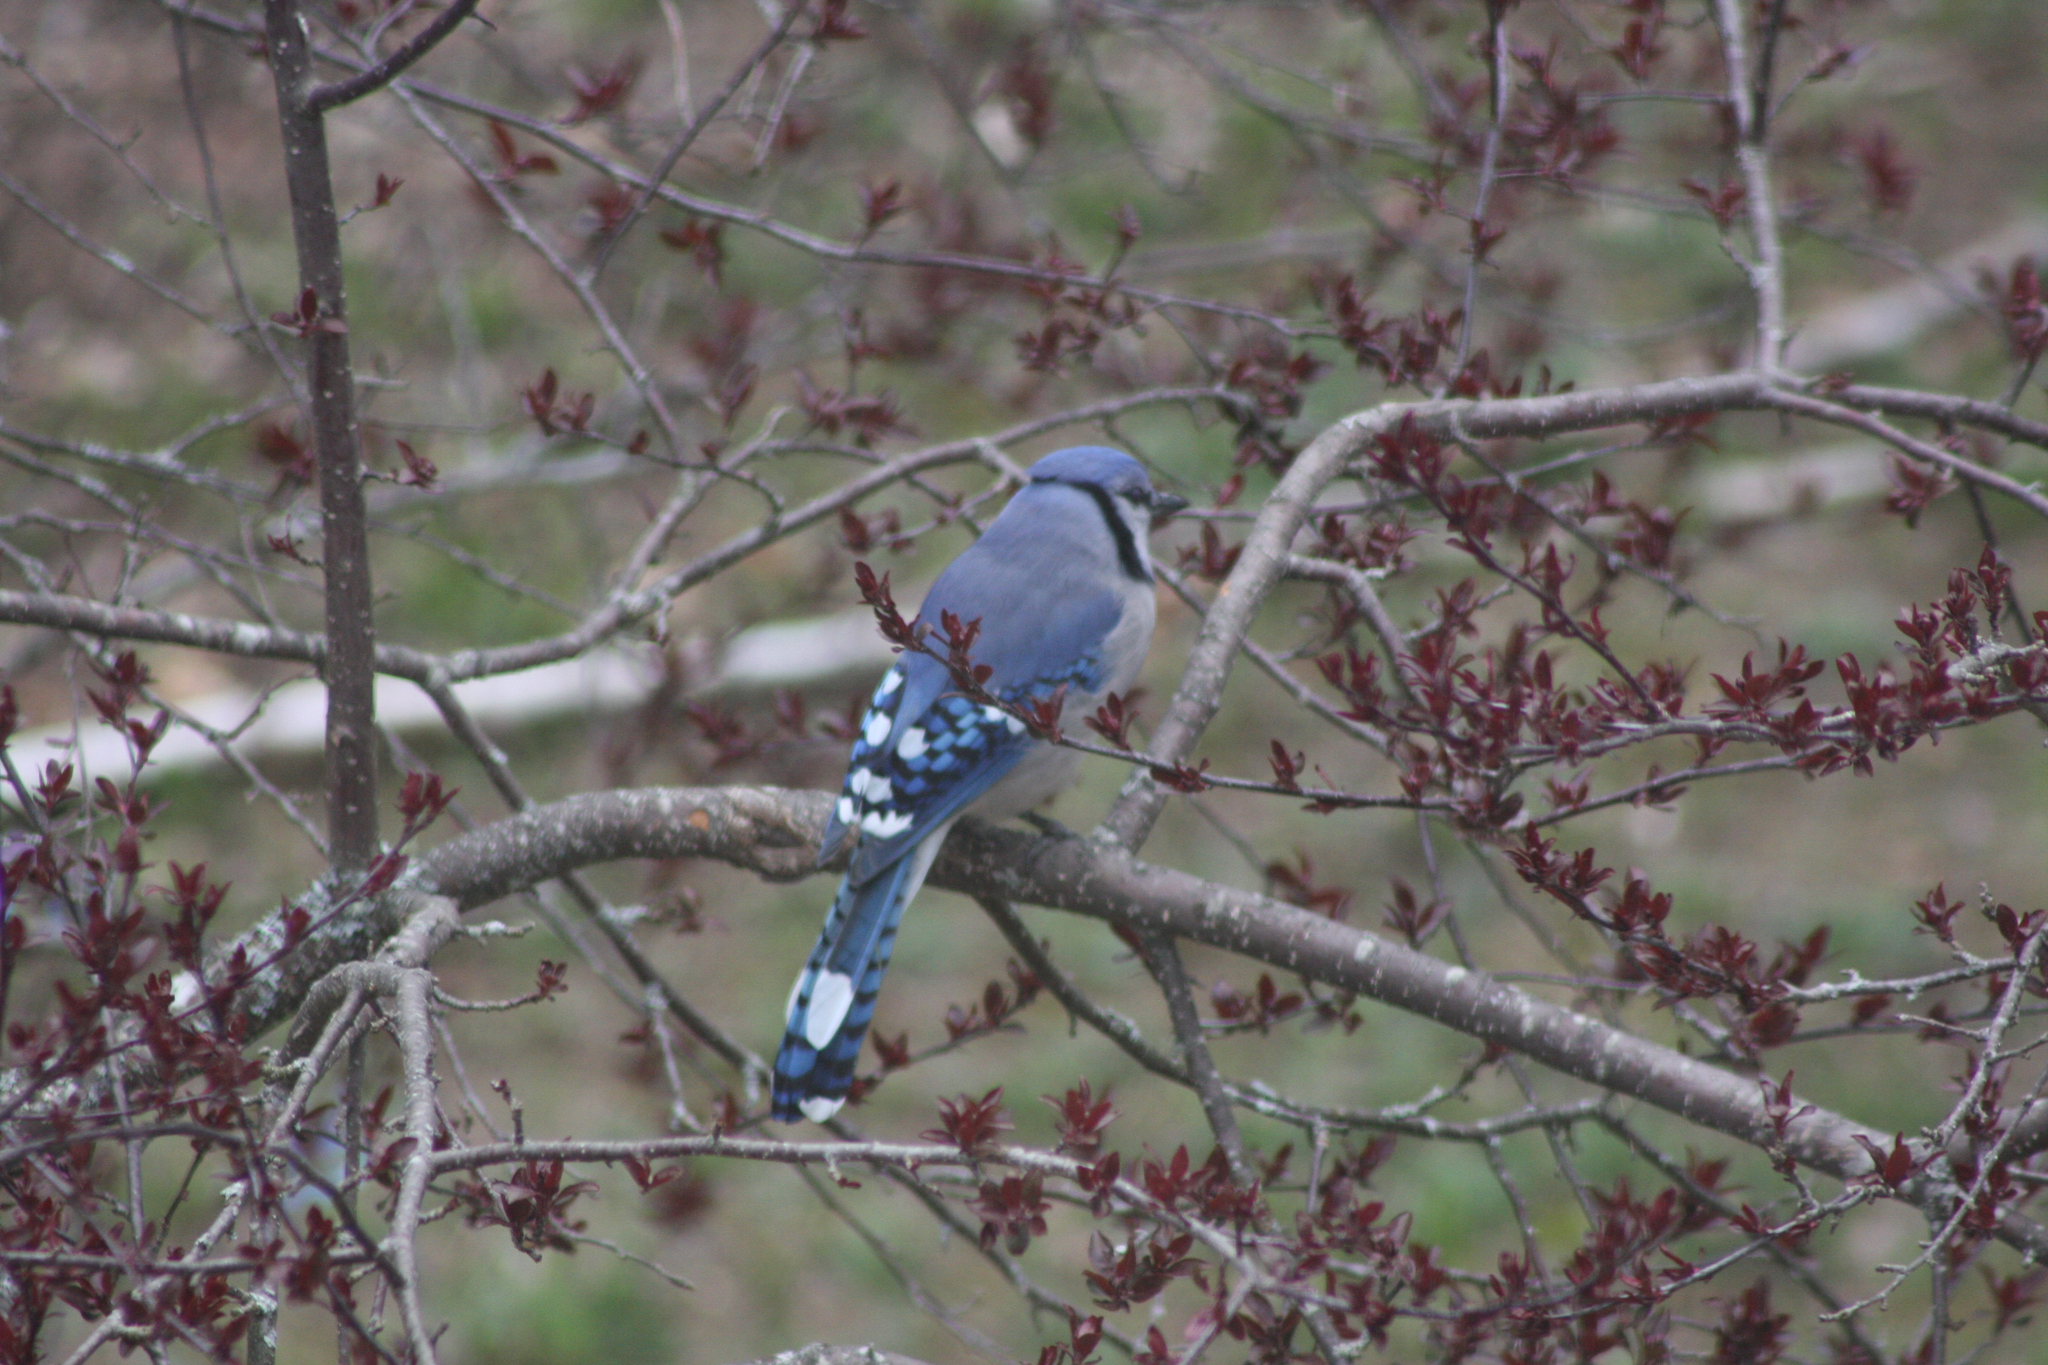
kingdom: Animalia
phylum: Chordata
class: Aves
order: Passeriformes
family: Corvidae
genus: Cyanocitta
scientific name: Cyanocitta cristata
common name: Blue jay
